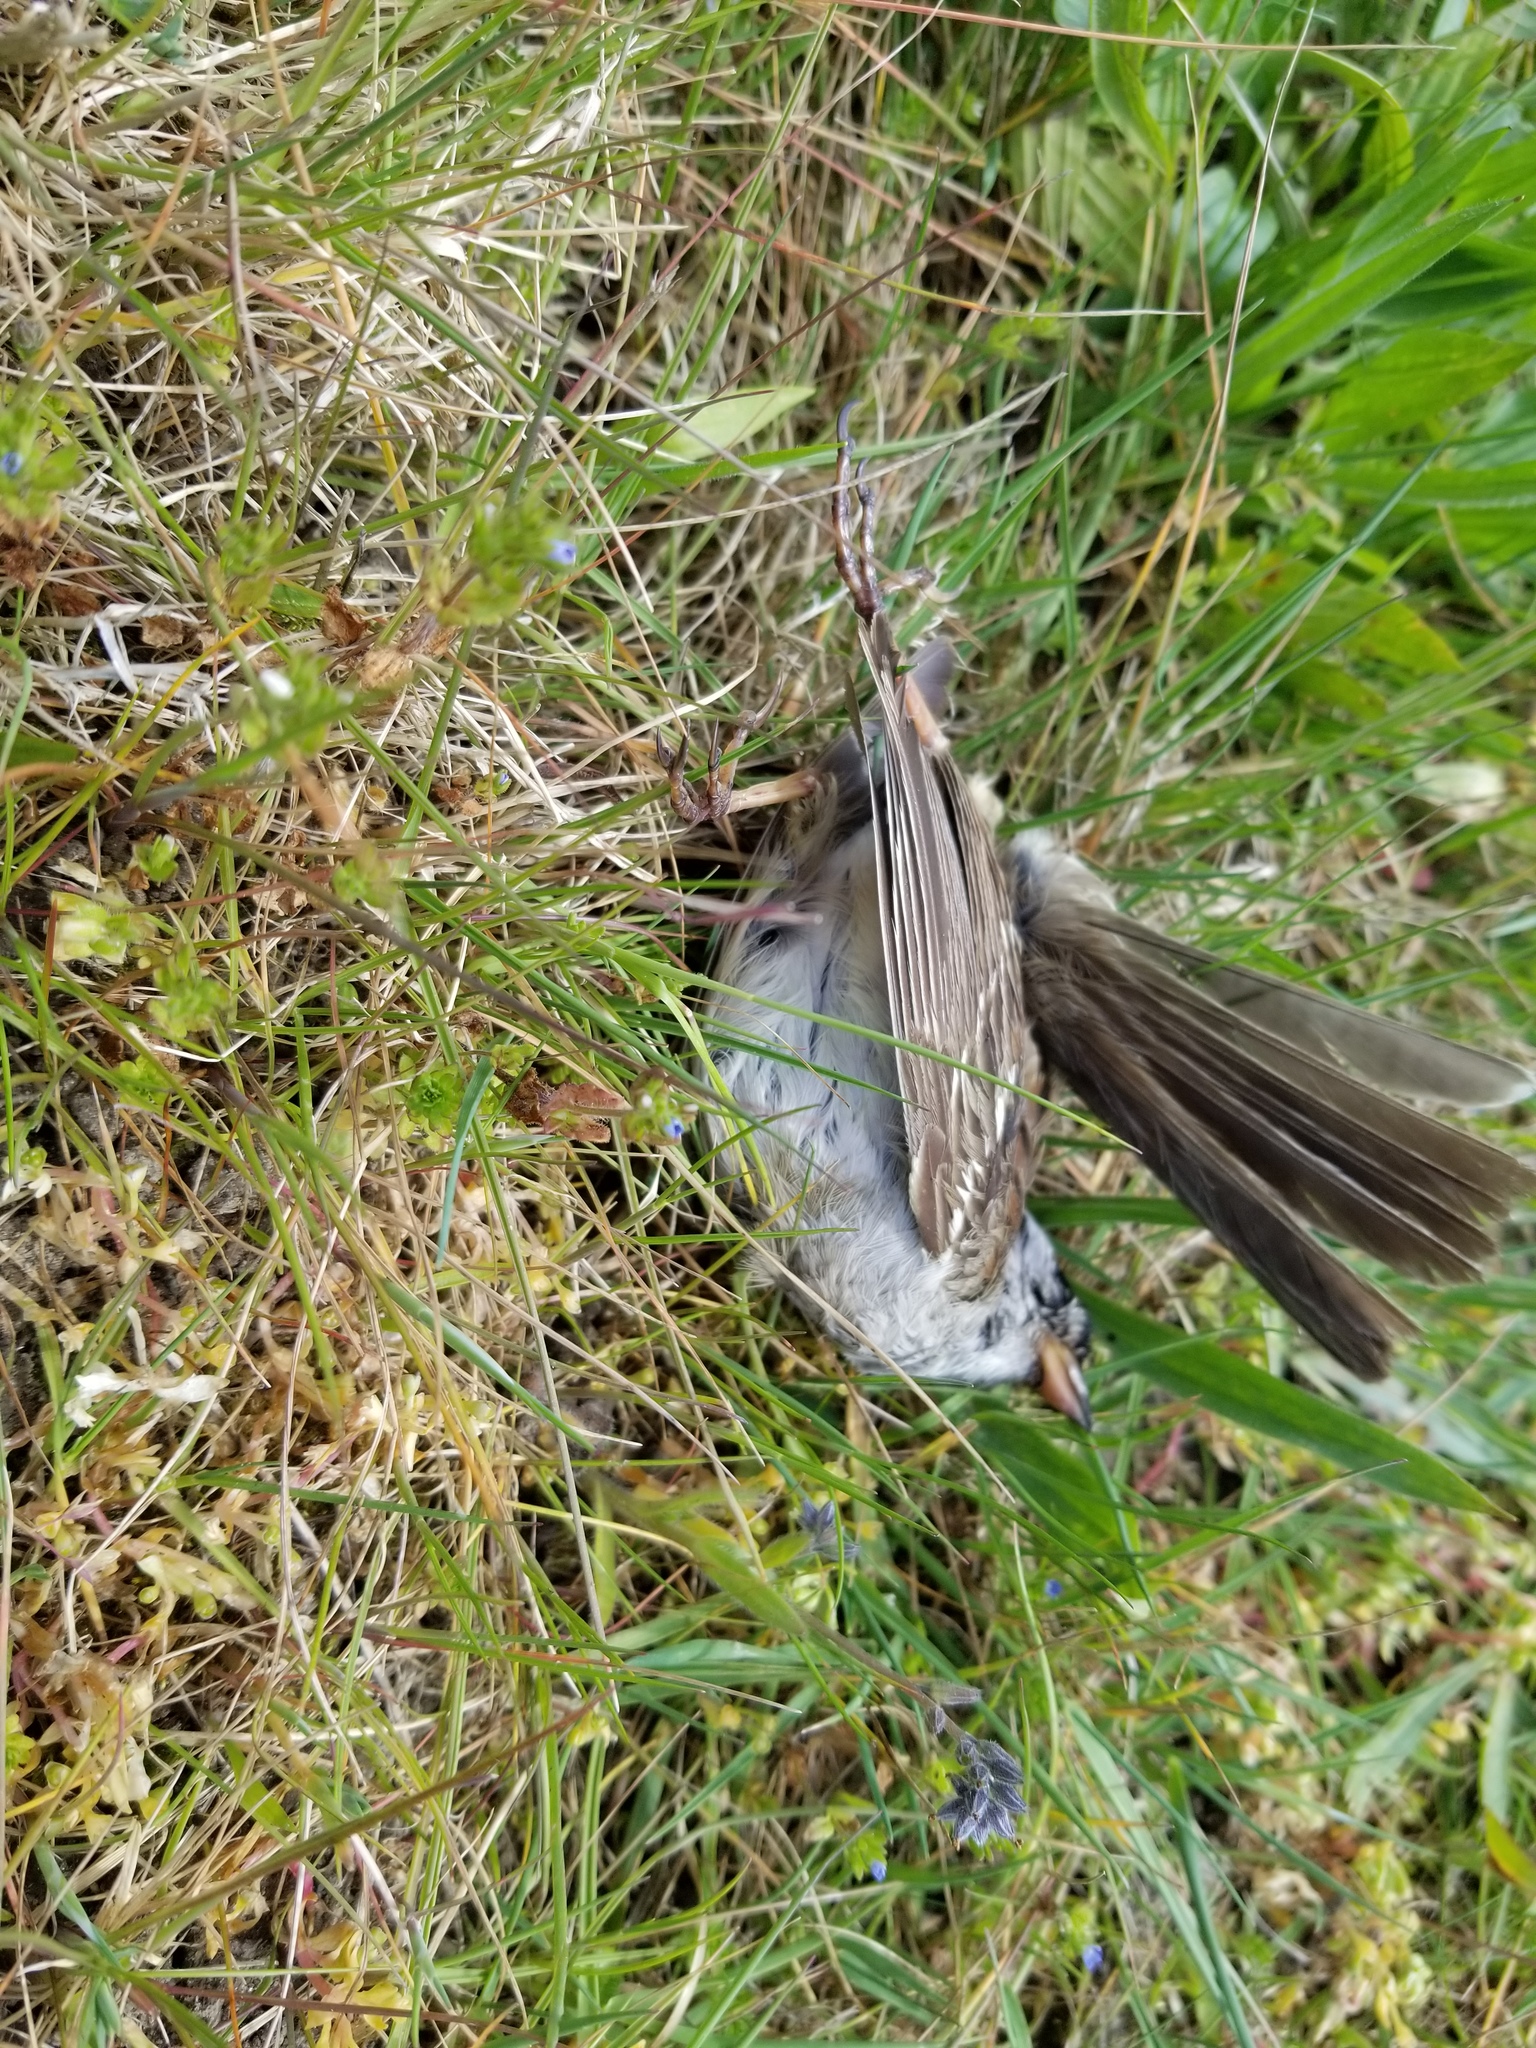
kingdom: Animalia
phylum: Chordata
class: Aves
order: Passeriformes
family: Passerellidae
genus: Zonotrichia
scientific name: Zonotrichia leucophrys
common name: White-crowned sparrow
